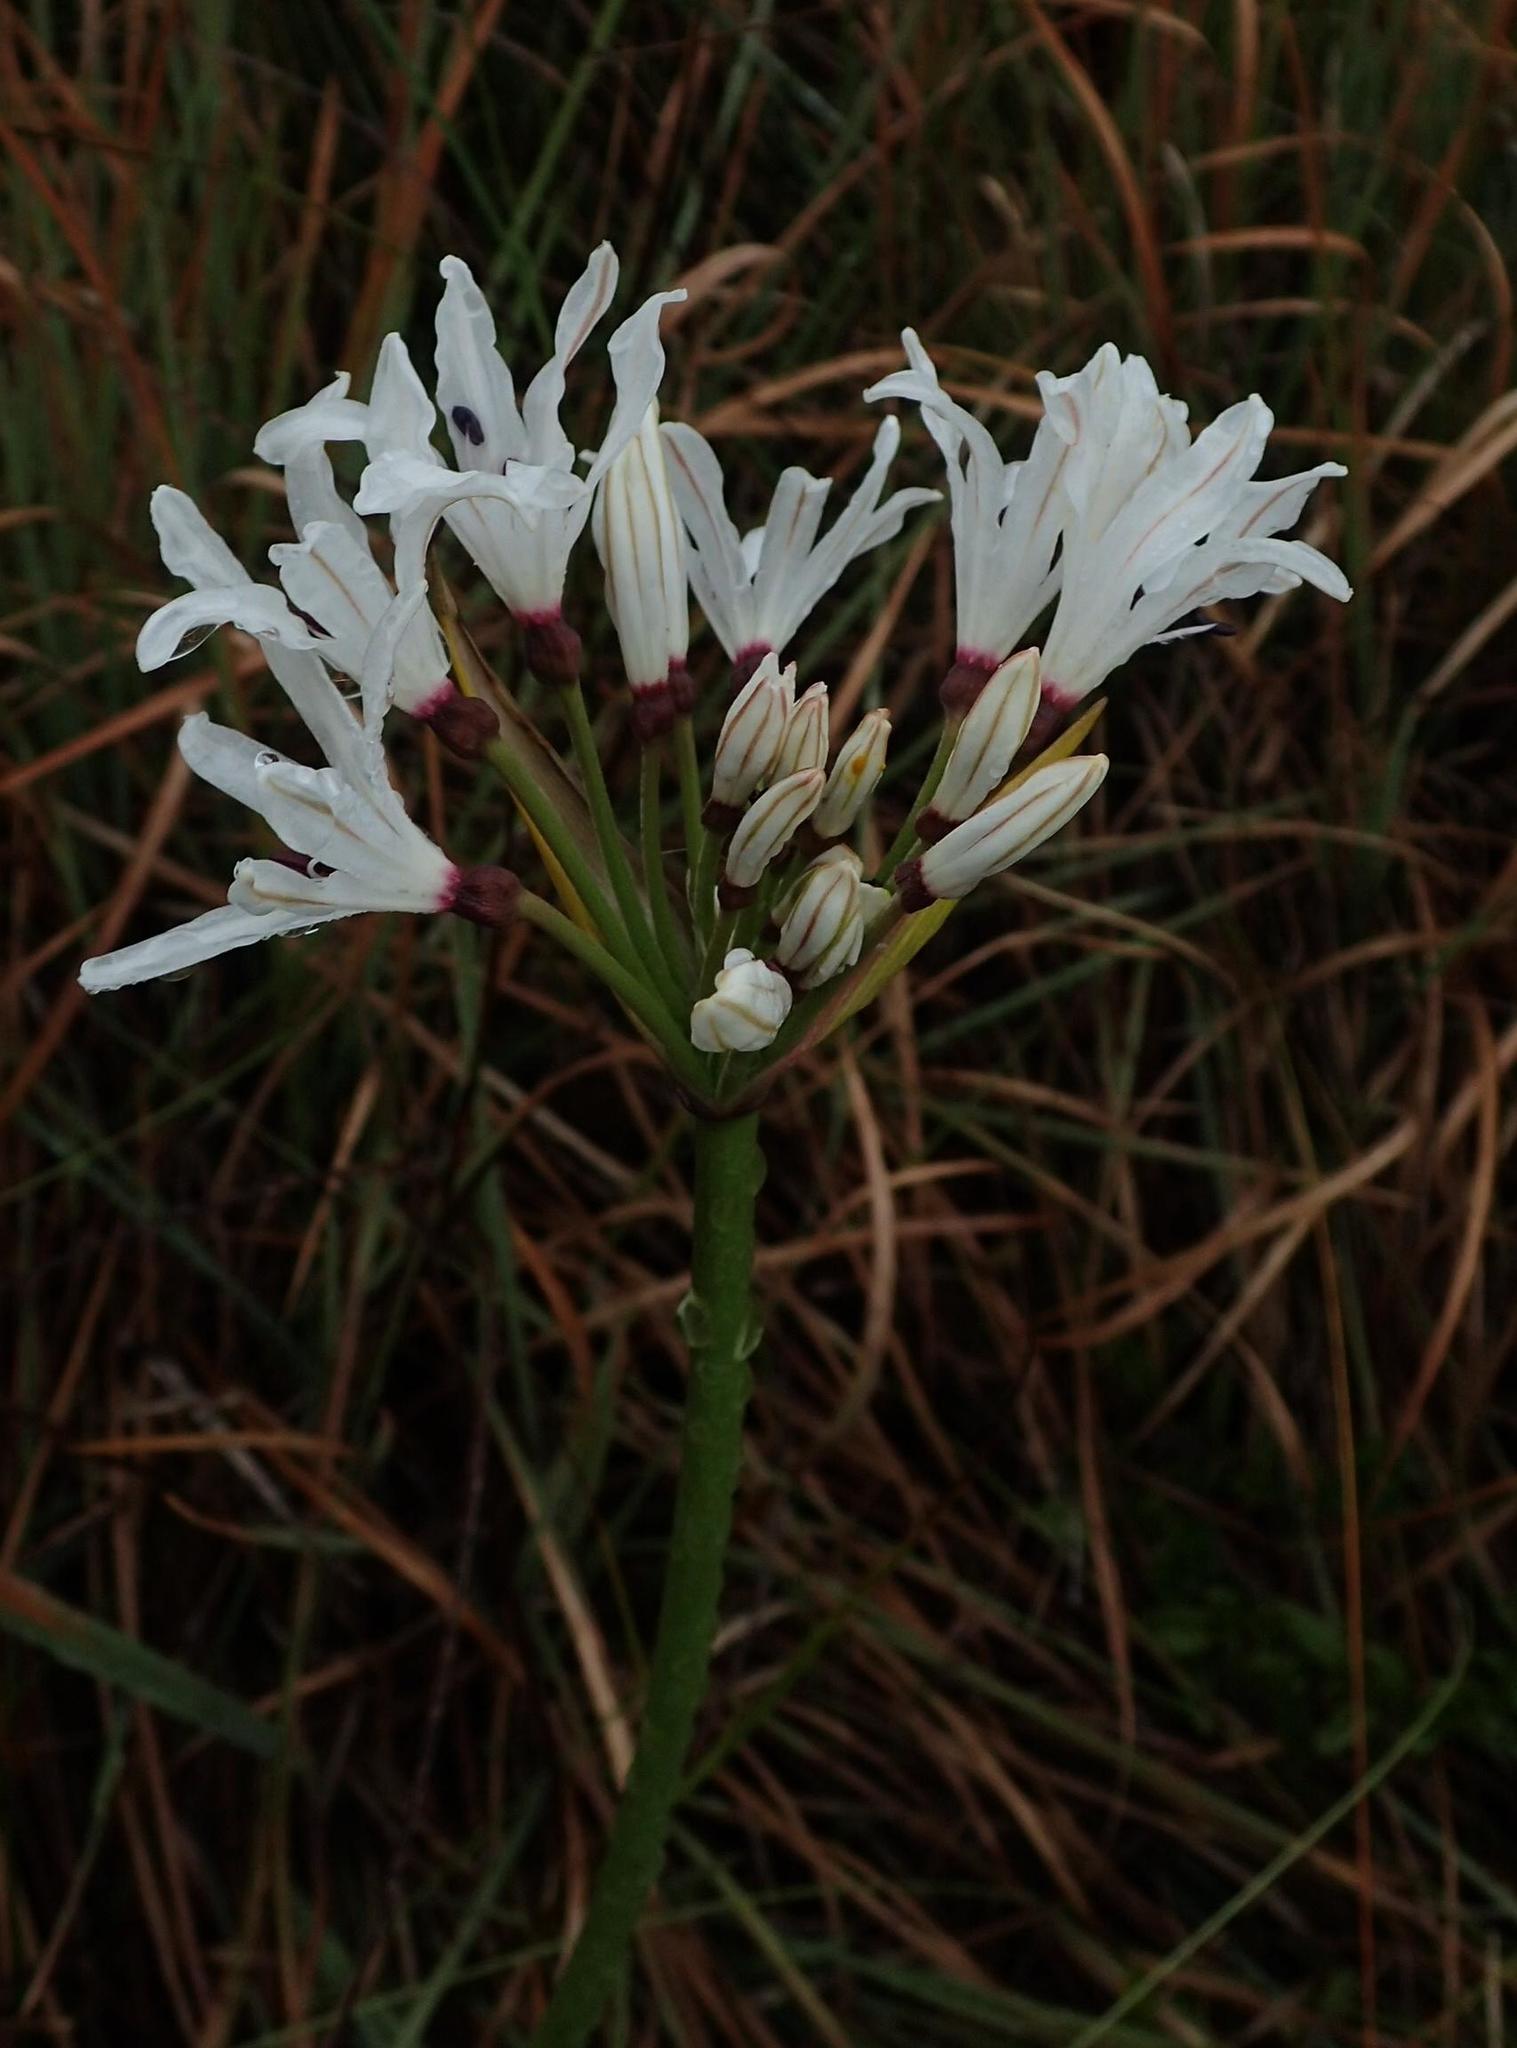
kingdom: Plantae
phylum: Tracheophyta
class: Liliopsida
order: Asparagales
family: Amaryllidaceae
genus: Nerine
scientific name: Nerine pancratioides
